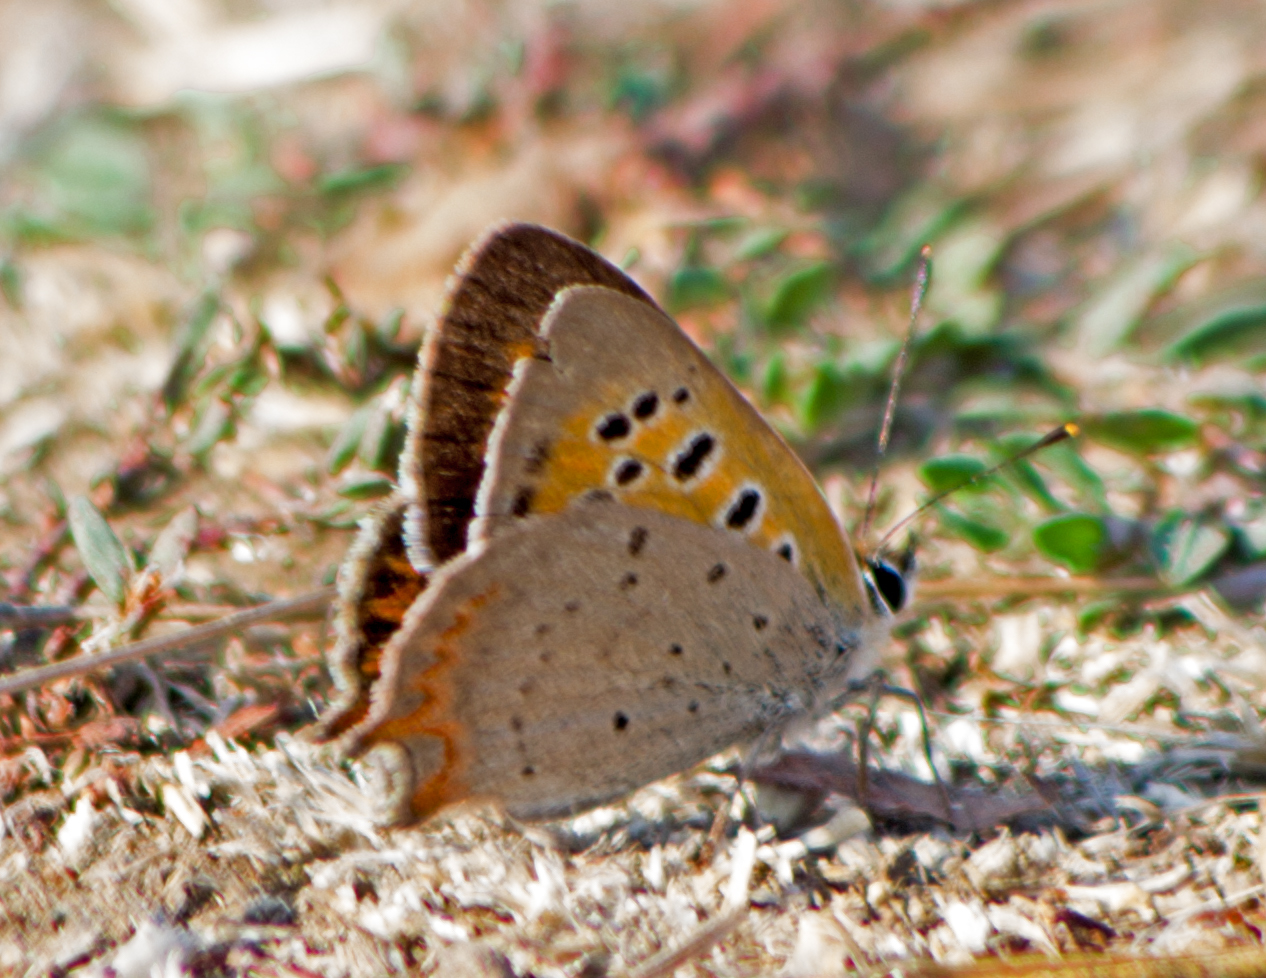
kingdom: Animalia
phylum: Arthropoda
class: Insecta
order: Lepidoptera
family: Lycaenidae
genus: Lycaena
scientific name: Lycaena phlaeas
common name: Small copper
